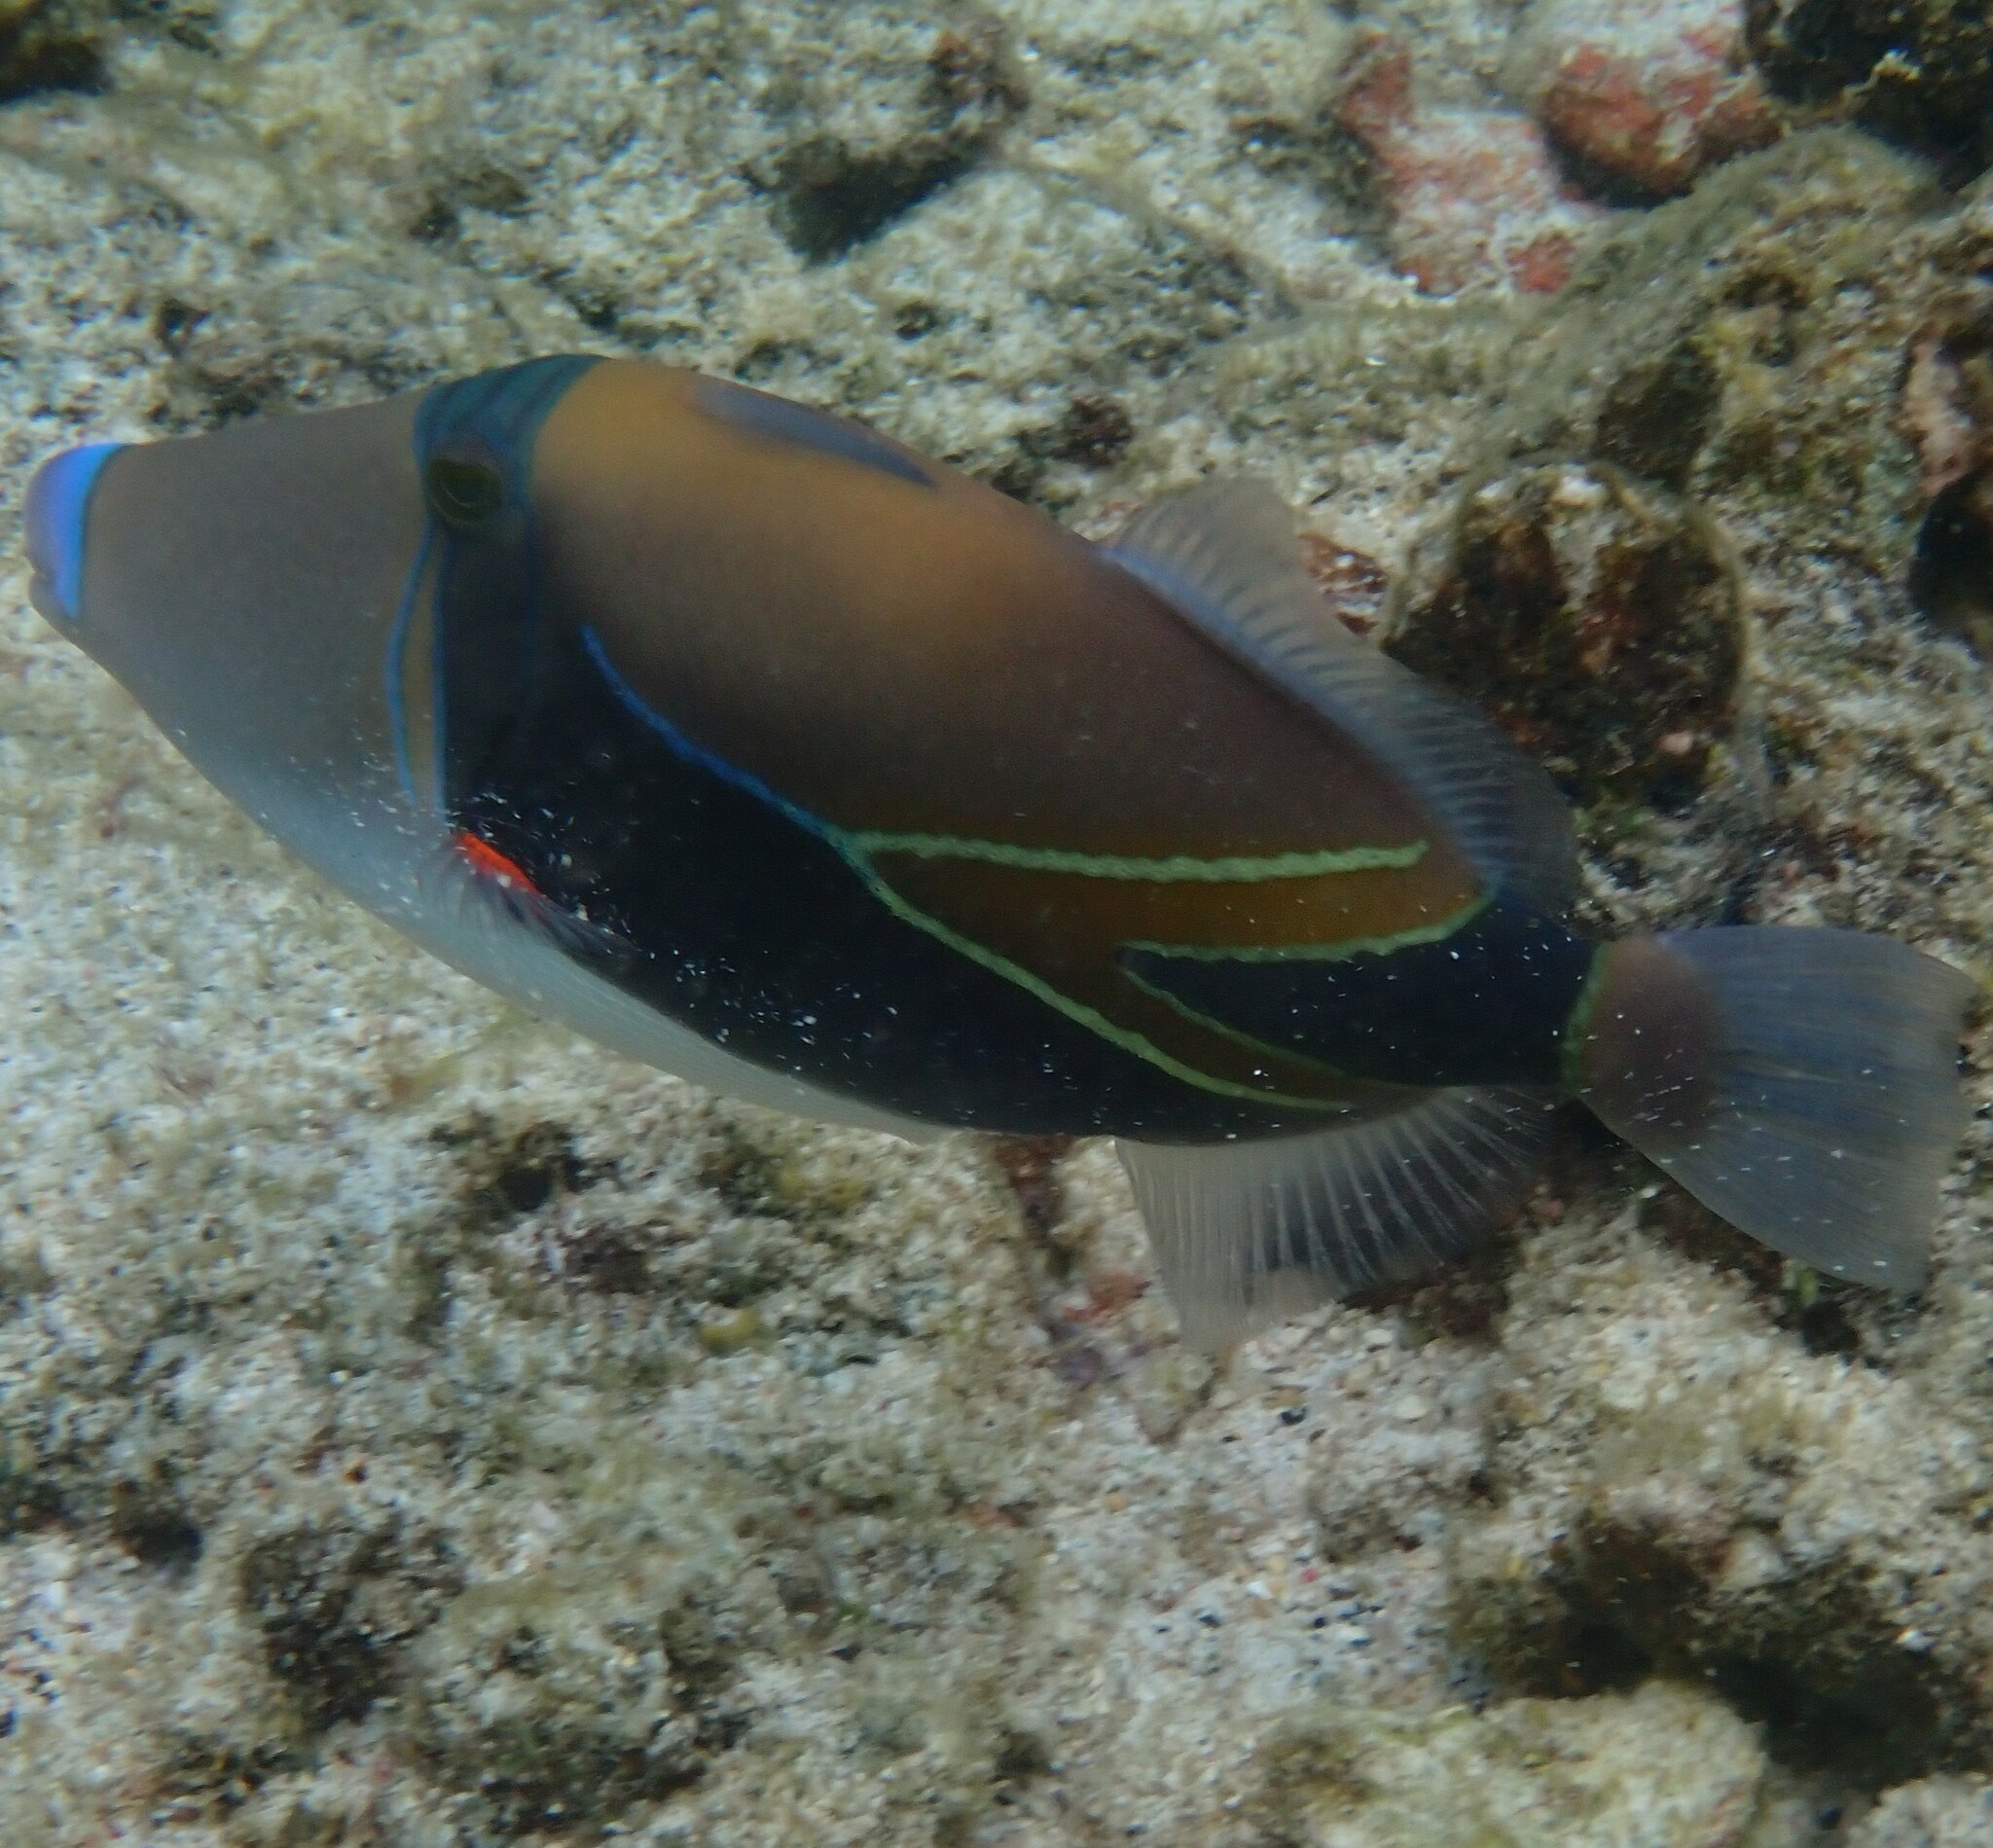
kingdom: Animalia
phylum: Chordata
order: Tetraodontiformes
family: Balistidae
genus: Rhinecanthus
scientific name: Rhinecanthus rectangulus
